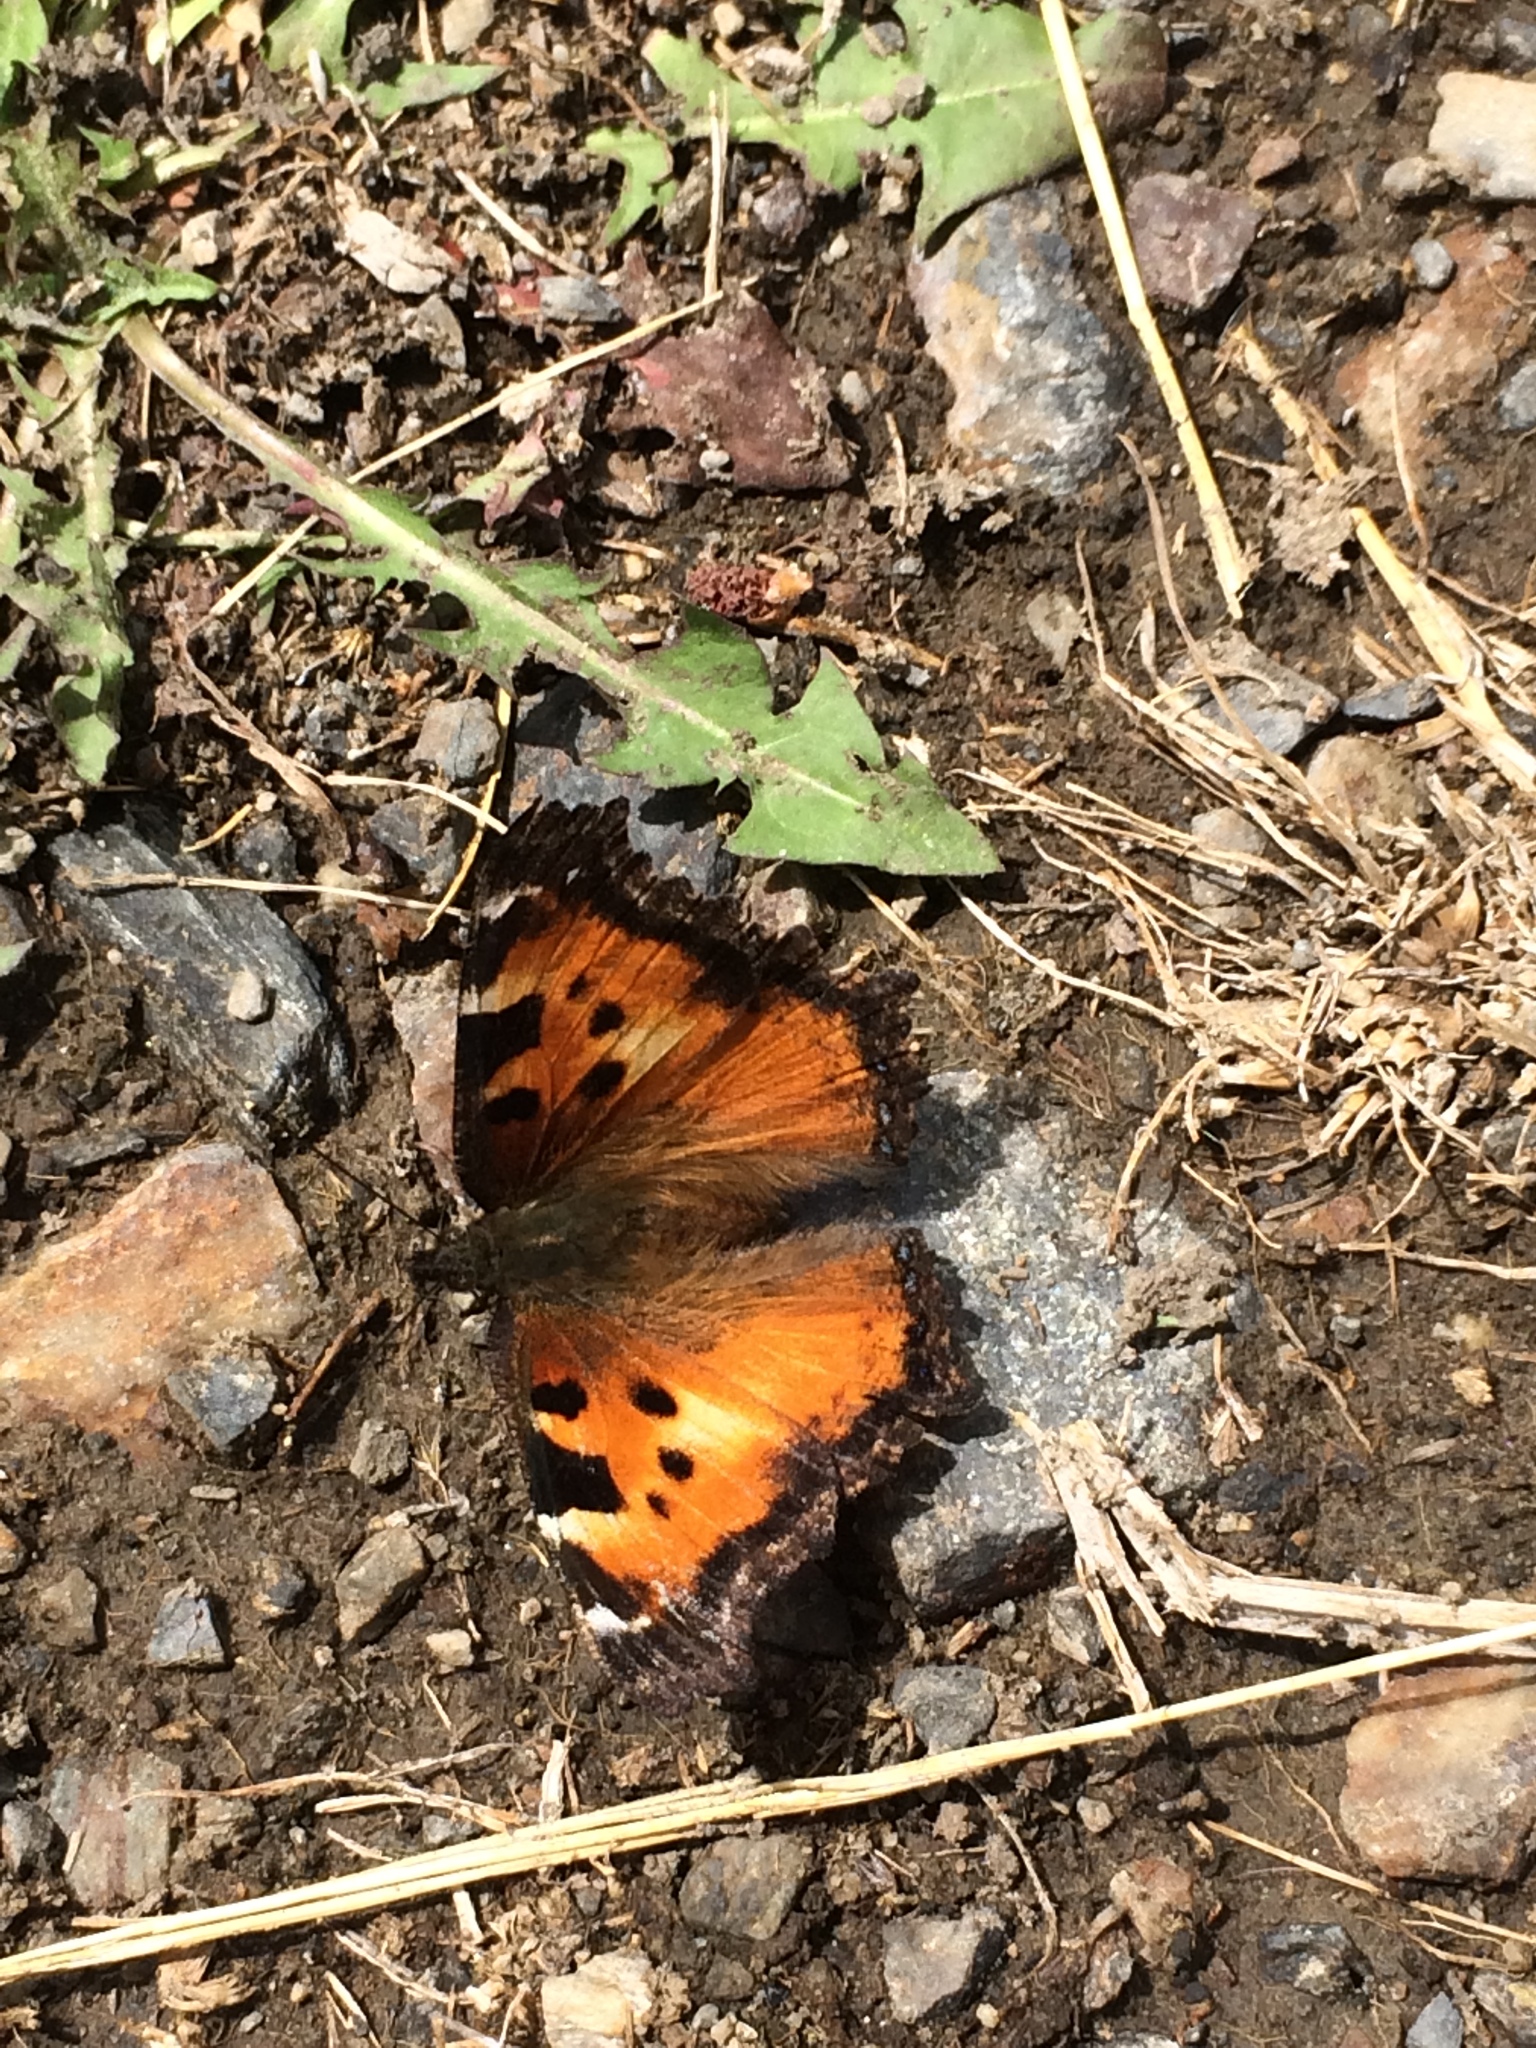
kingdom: Animalia
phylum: Arthropoda
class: Insecta
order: Lepidoptera
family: Nymphalidae
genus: Nymphalis
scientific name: Nymphalis californica
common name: California tortoiseshell
